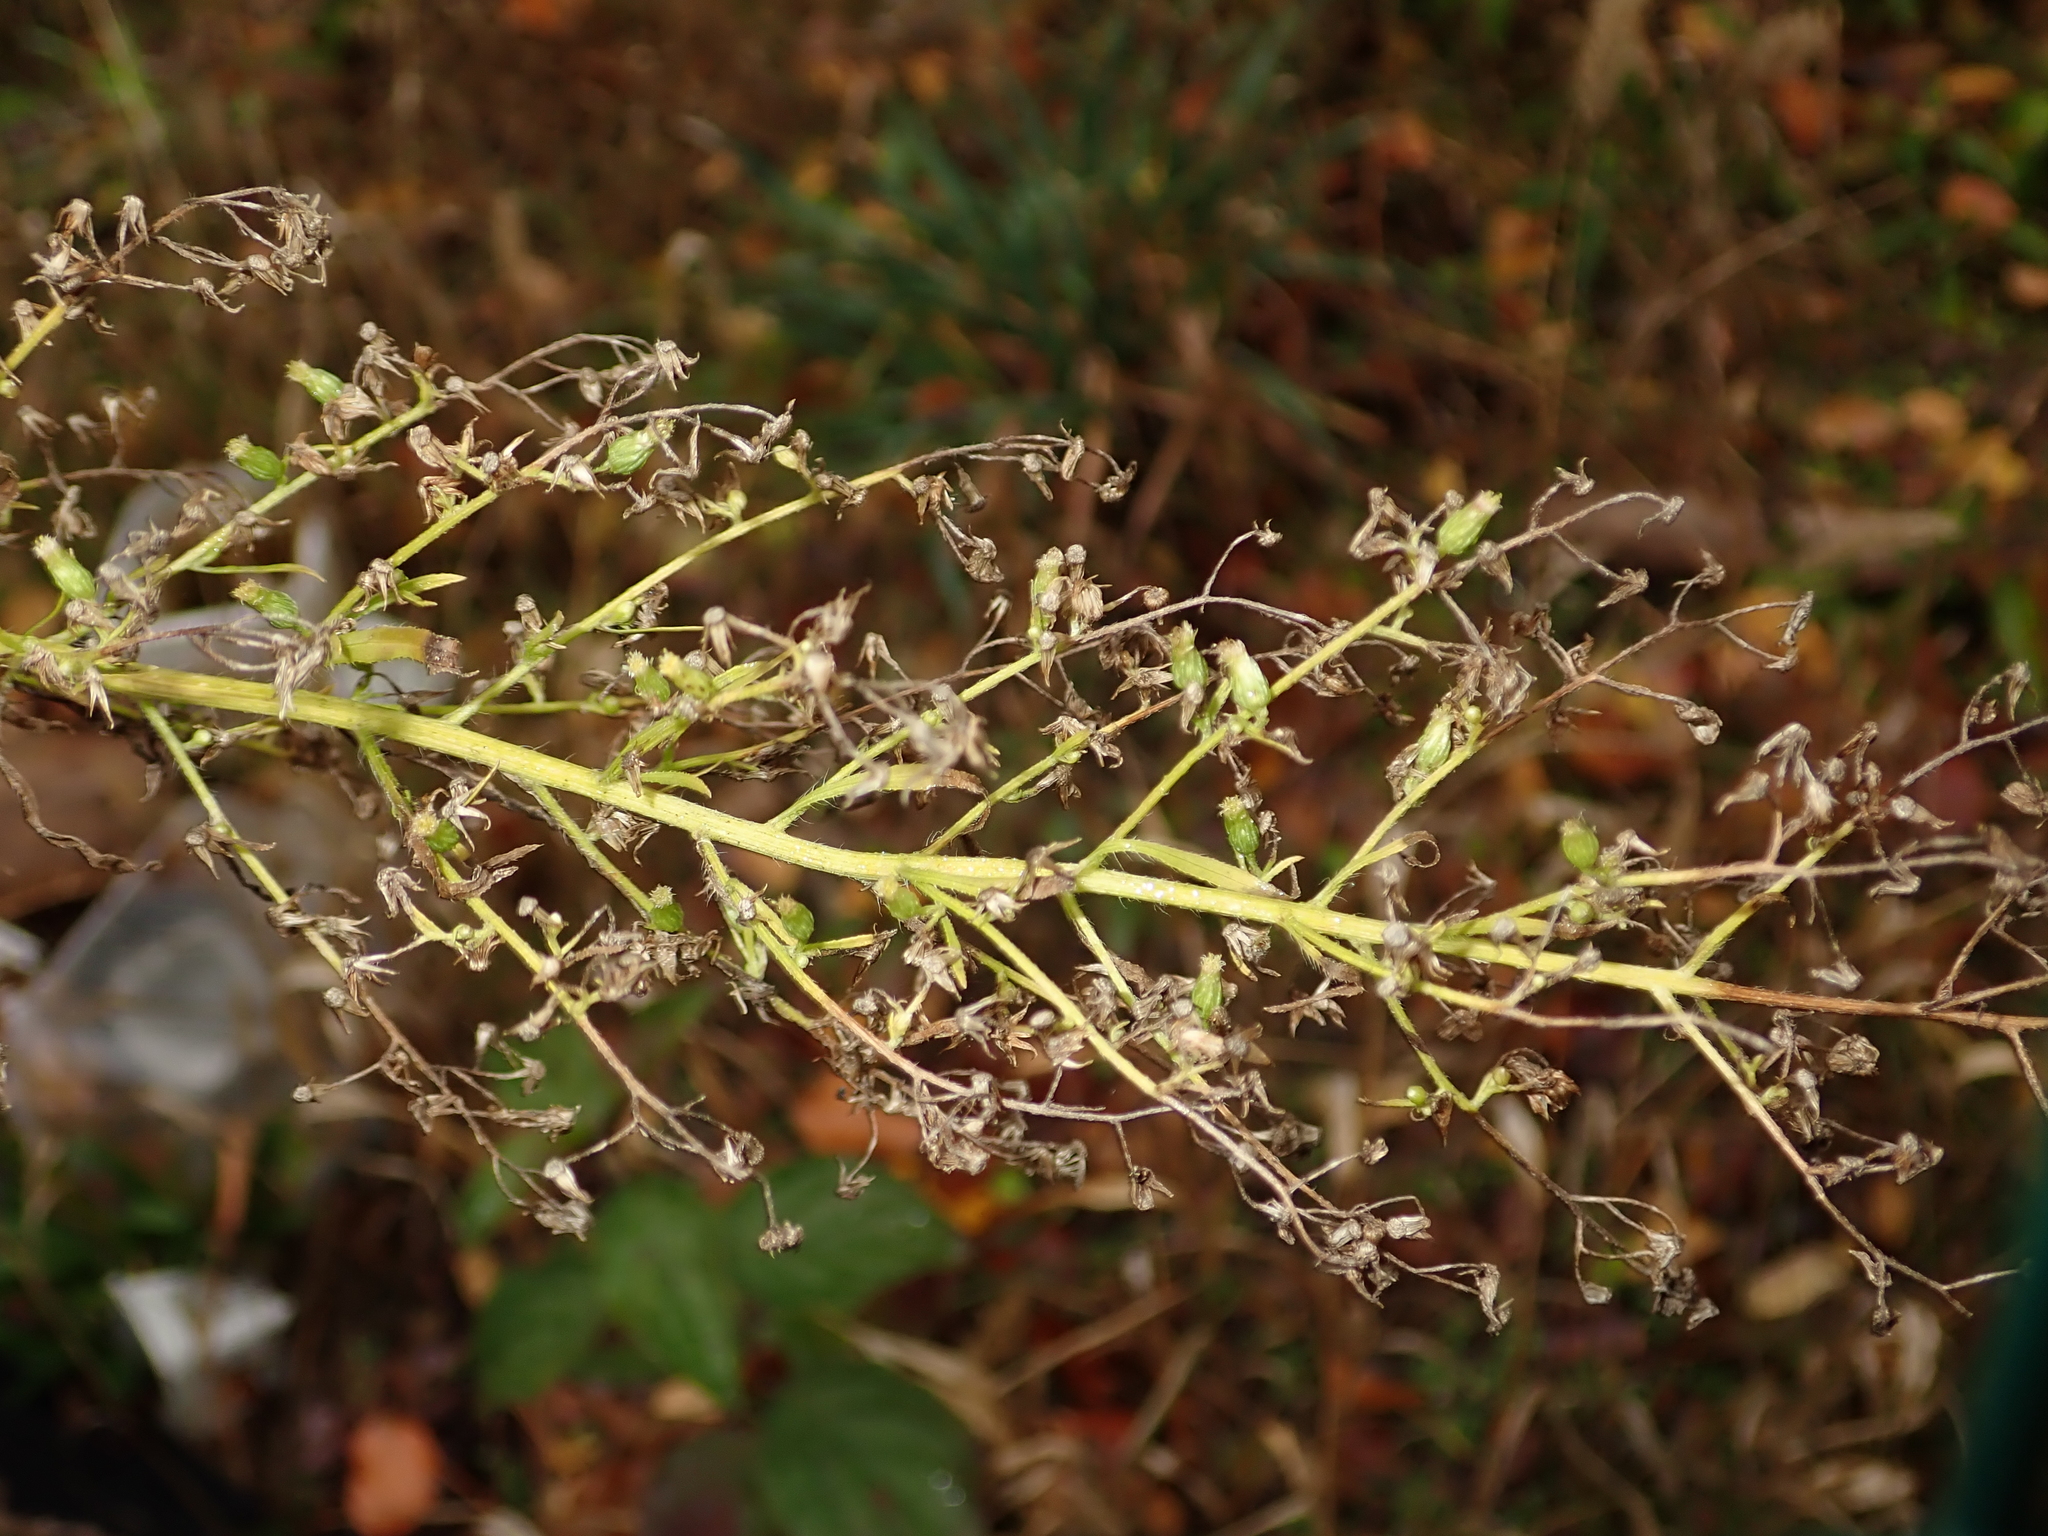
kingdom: Plantae
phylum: Tracheophyta
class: Magnoliopsida
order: Asterales
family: Asteraceae
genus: Erigeron
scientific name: Erigeron canadensis
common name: Canadian fleabane
